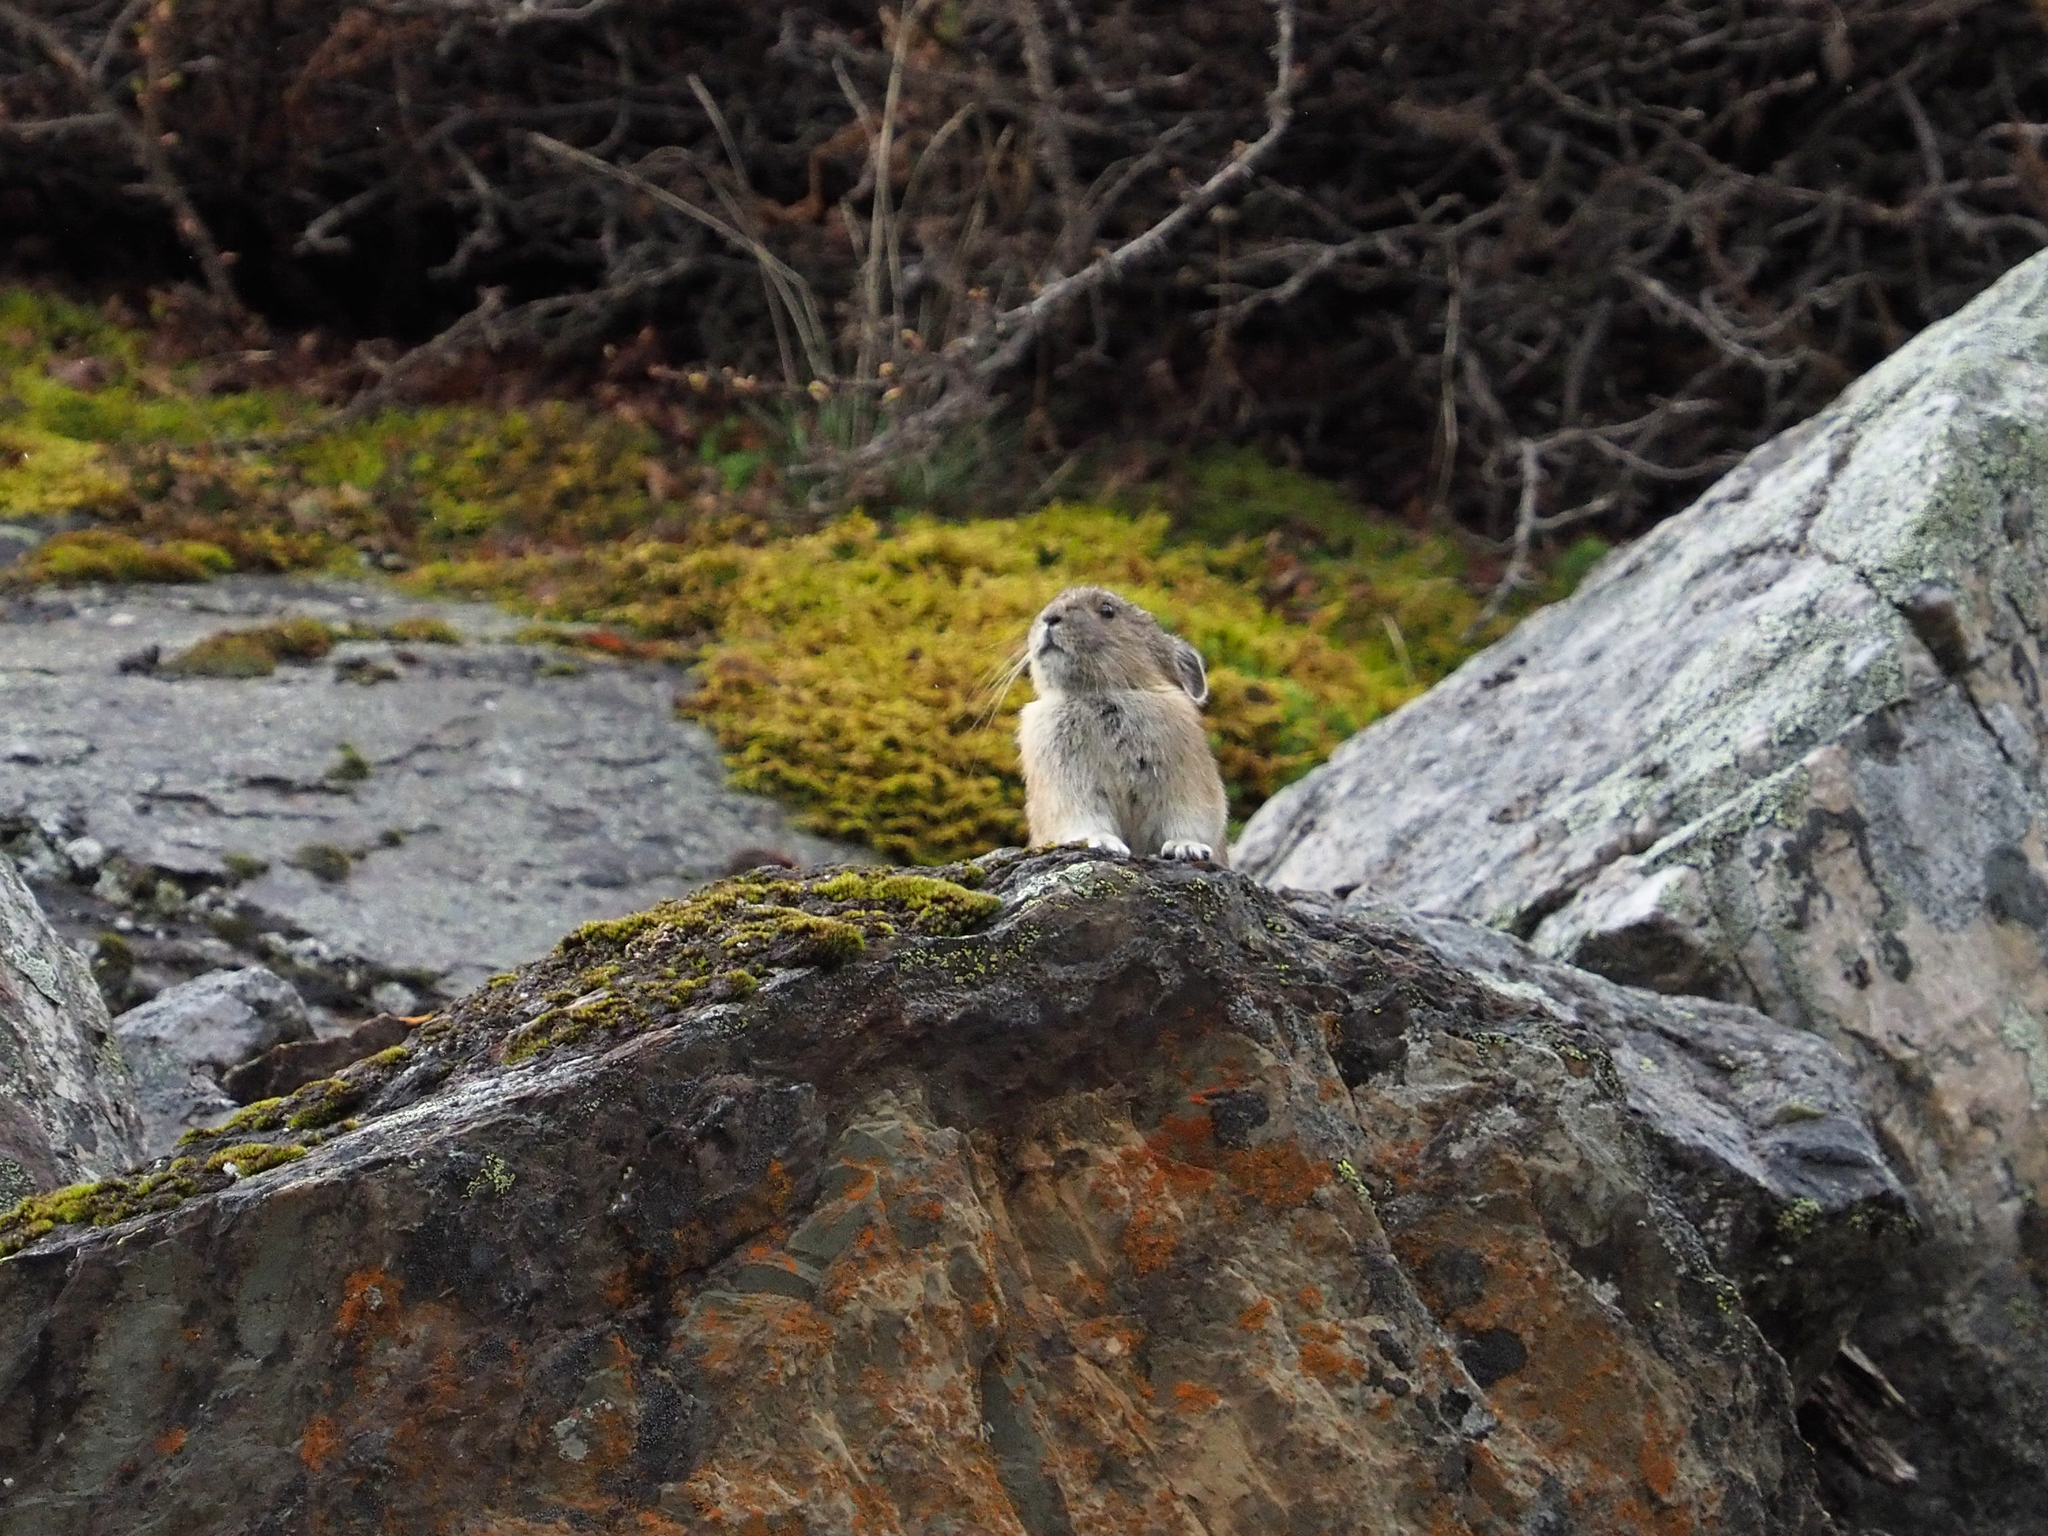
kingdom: Animalia
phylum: Chordata
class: Mammalia
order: Lagomorpha
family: Ochotonidae
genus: Ochotona
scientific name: Ochotona princeps
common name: American pika
